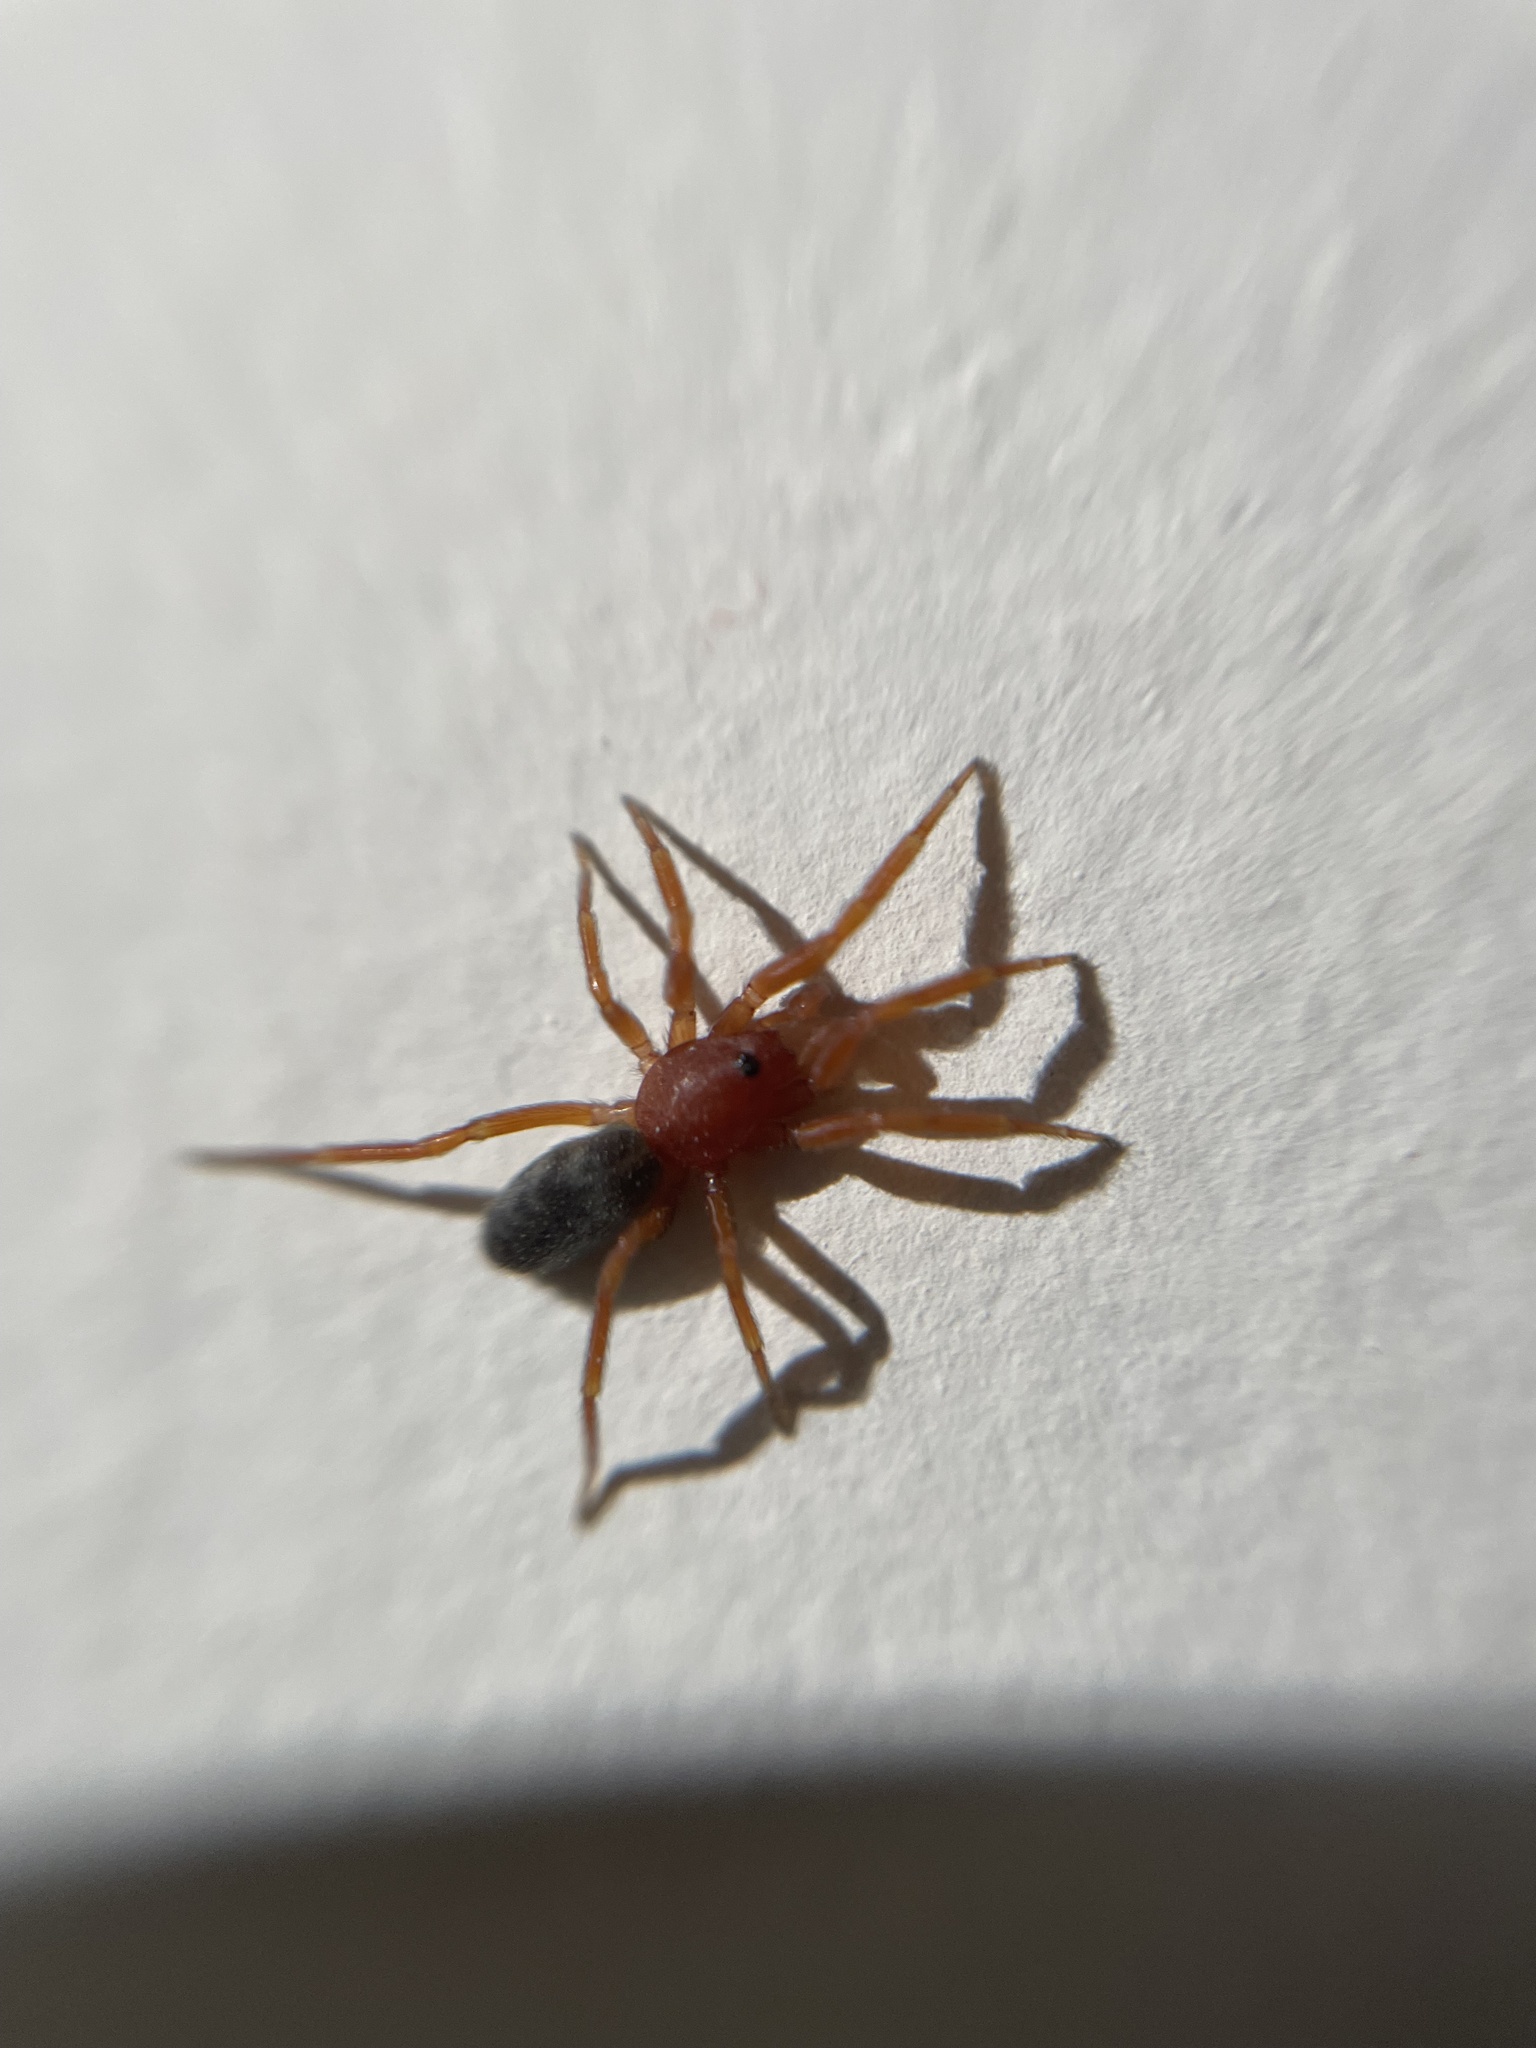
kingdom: Animalia
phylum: Arthropoda
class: Arachnida
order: Araneae
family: Caponiidae
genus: Nops
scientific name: Nops quito
